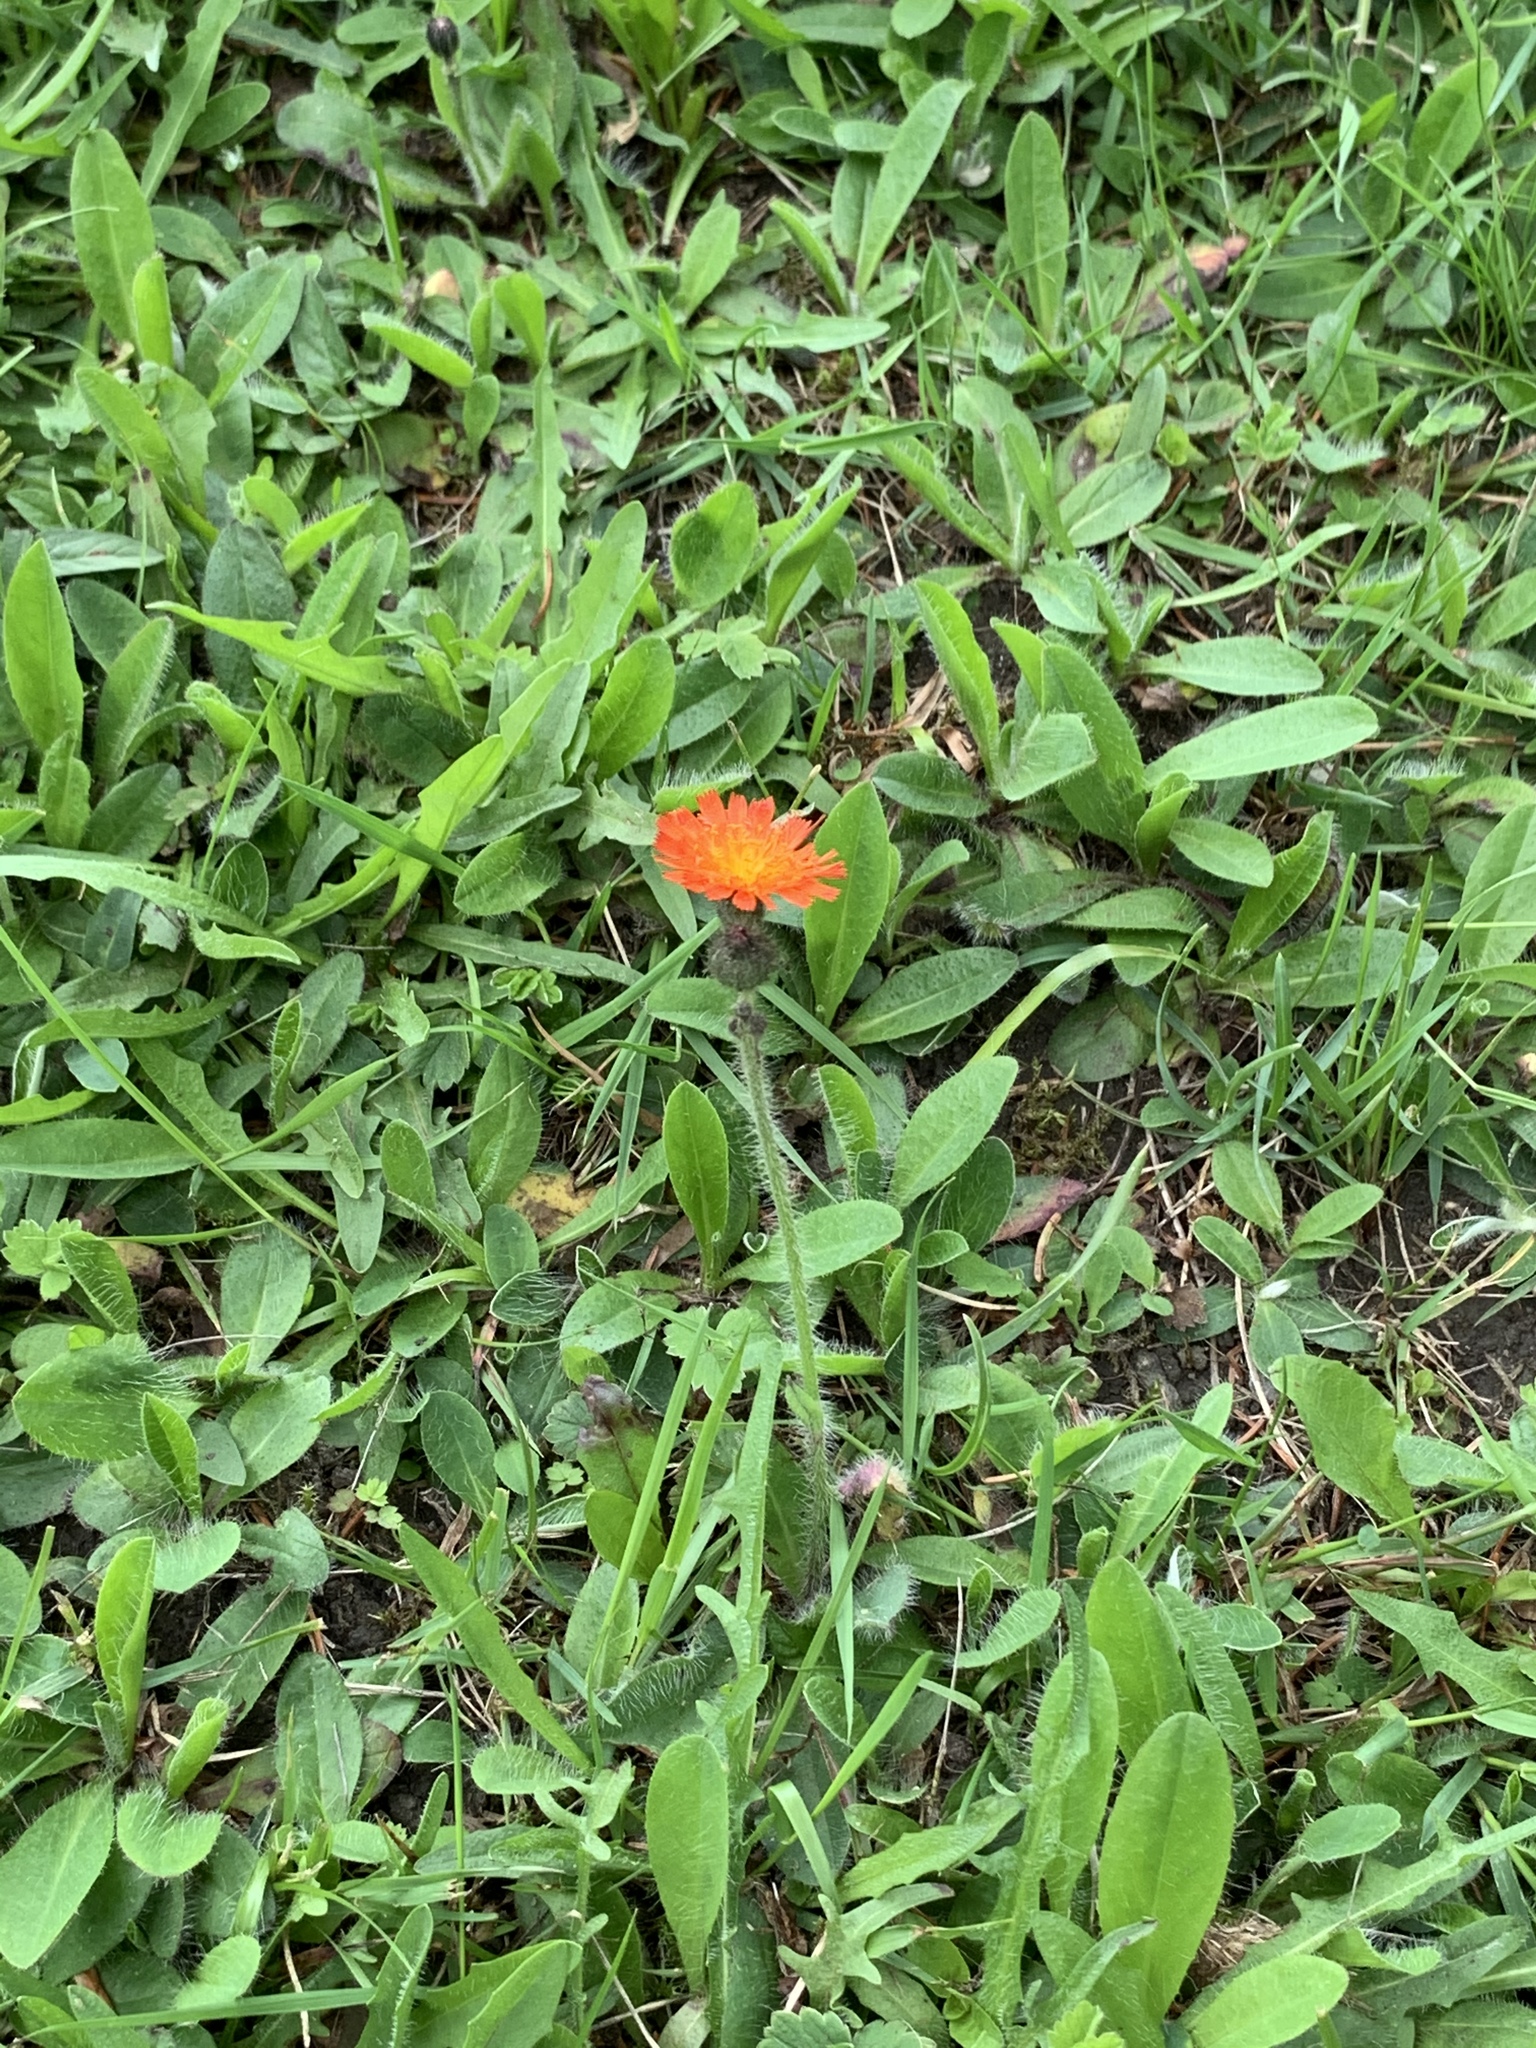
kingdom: Plantae
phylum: Tracheophyta
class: Magnoliopsida
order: Asterales
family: Asteraceae
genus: Pilosella
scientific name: Pilosella aurantiaca
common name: Fox-and-cubs
